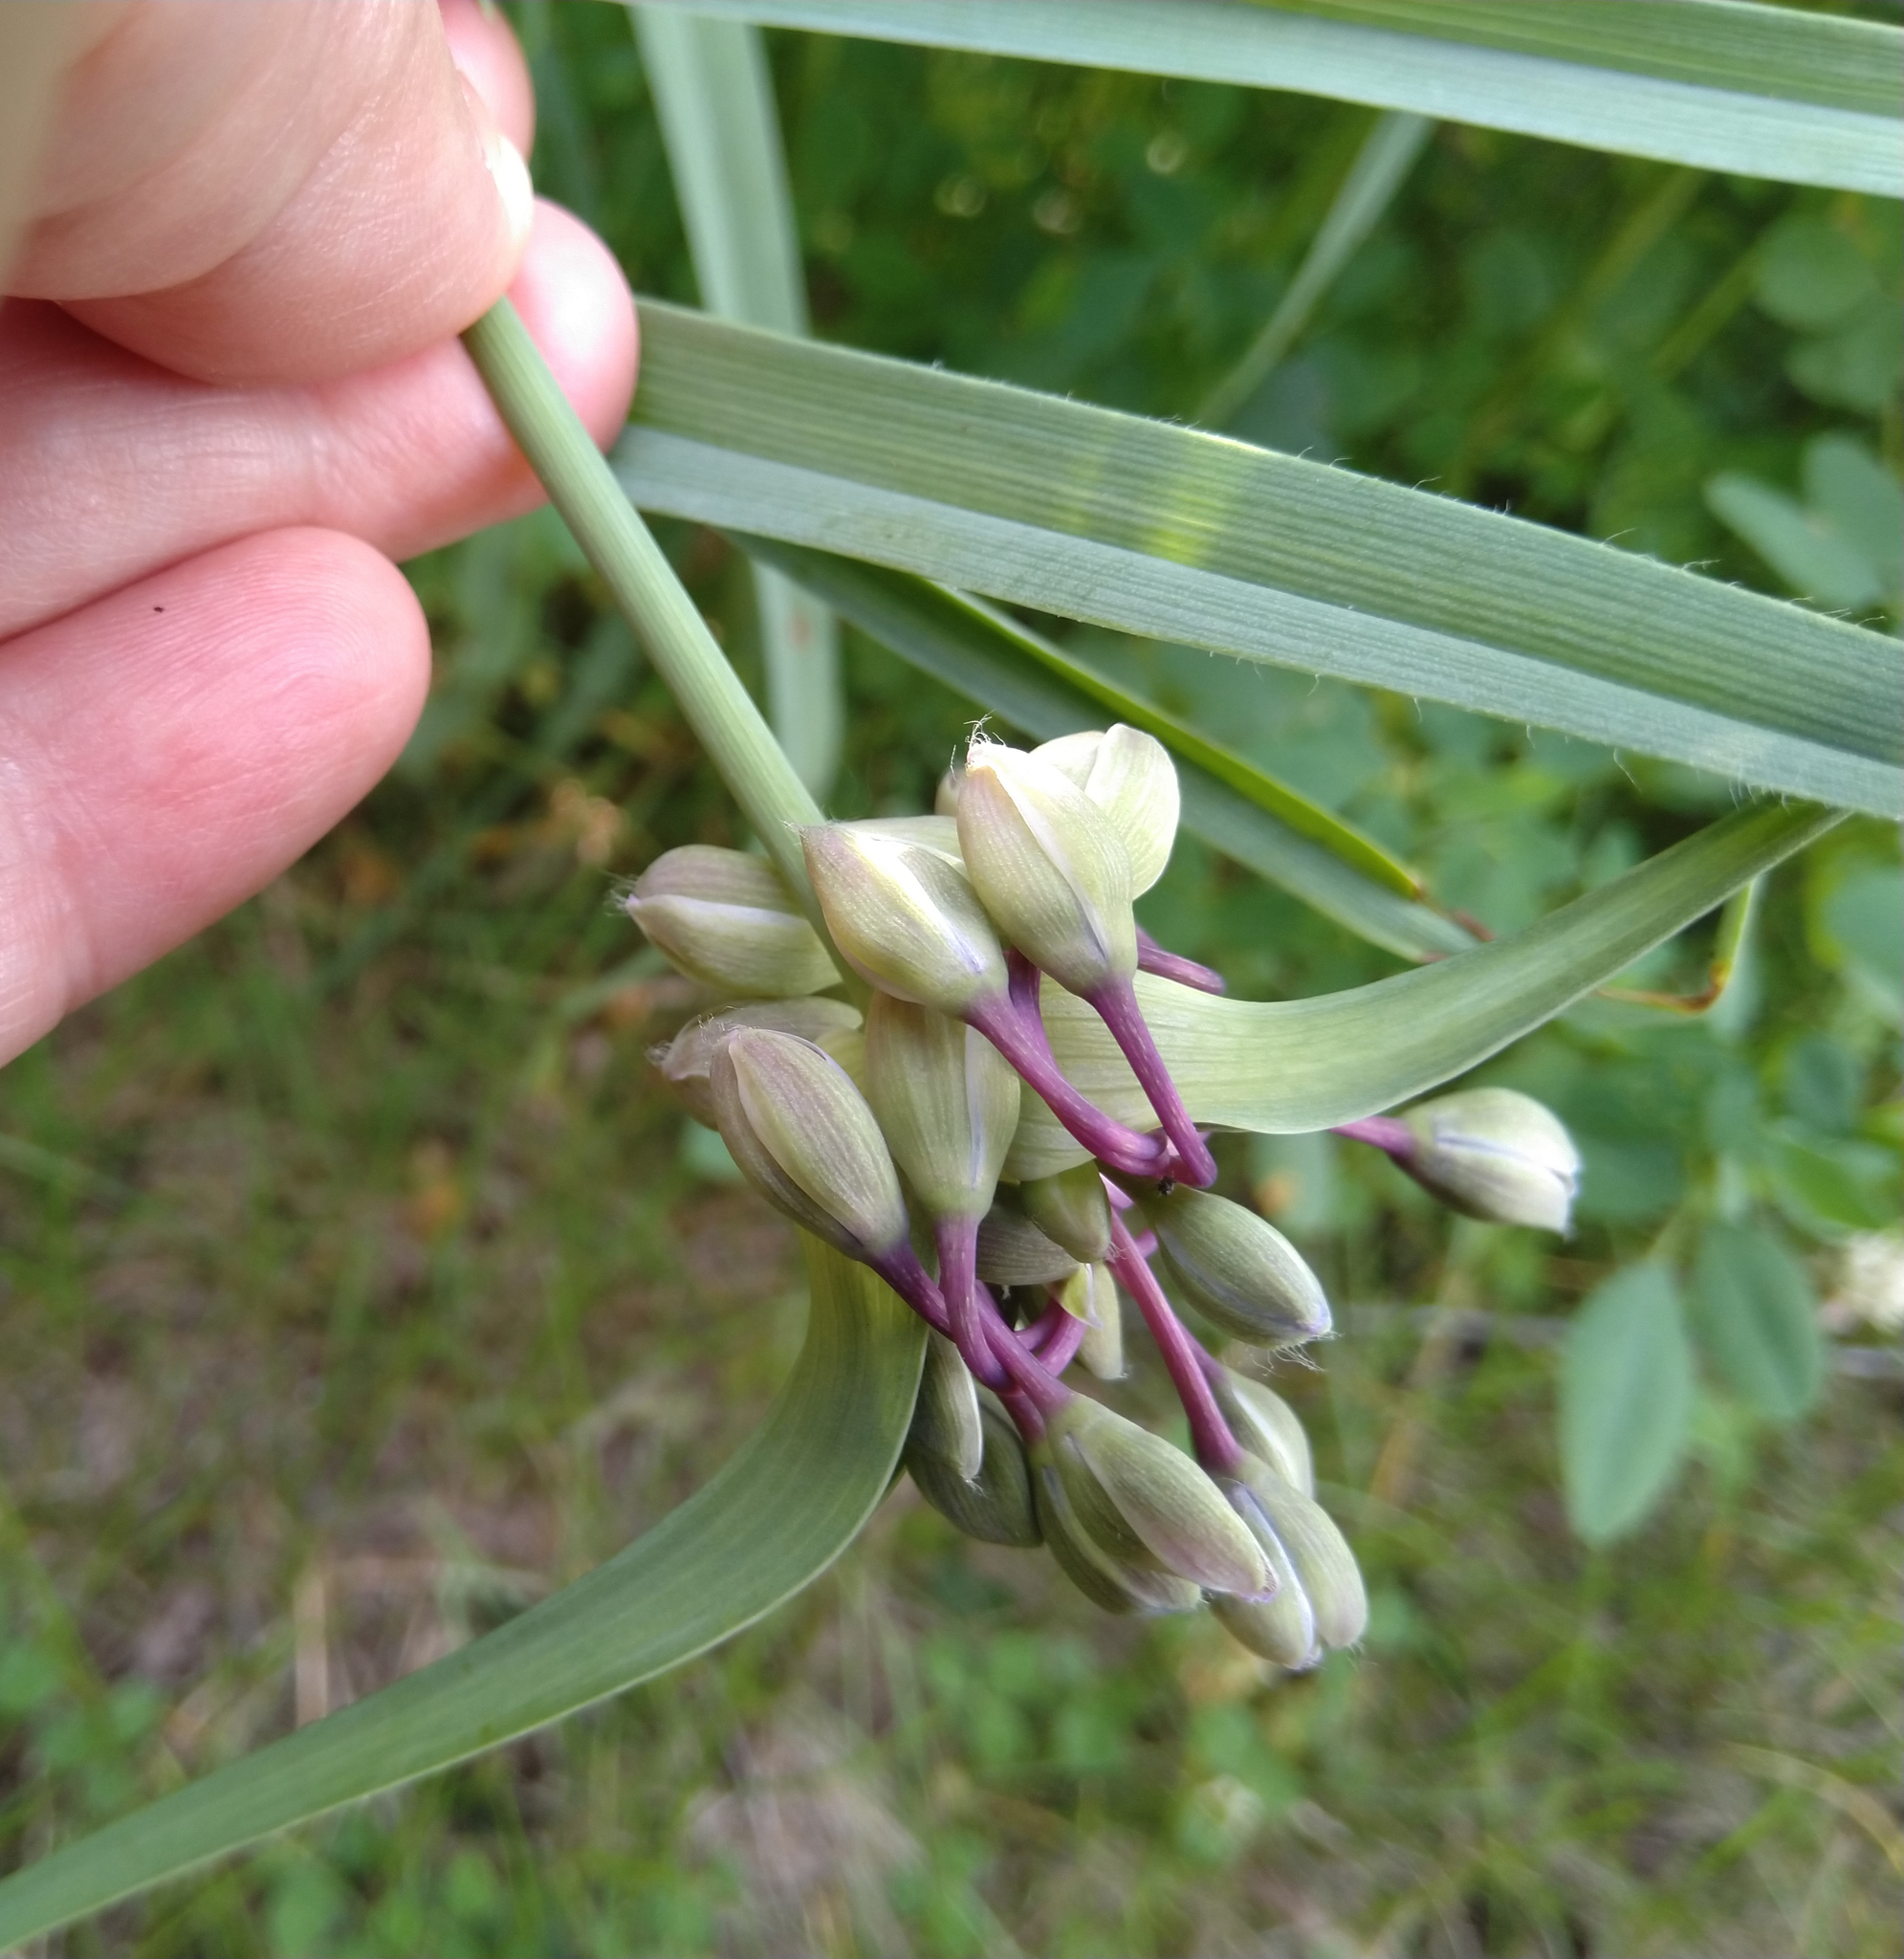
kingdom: Plantae
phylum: Tracheophyta
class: Liliopsida
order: Commelinales
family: Commelinaceae
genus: Tradescantia
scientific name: Tradescantia ohiensis
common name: Ohio spiderwort
